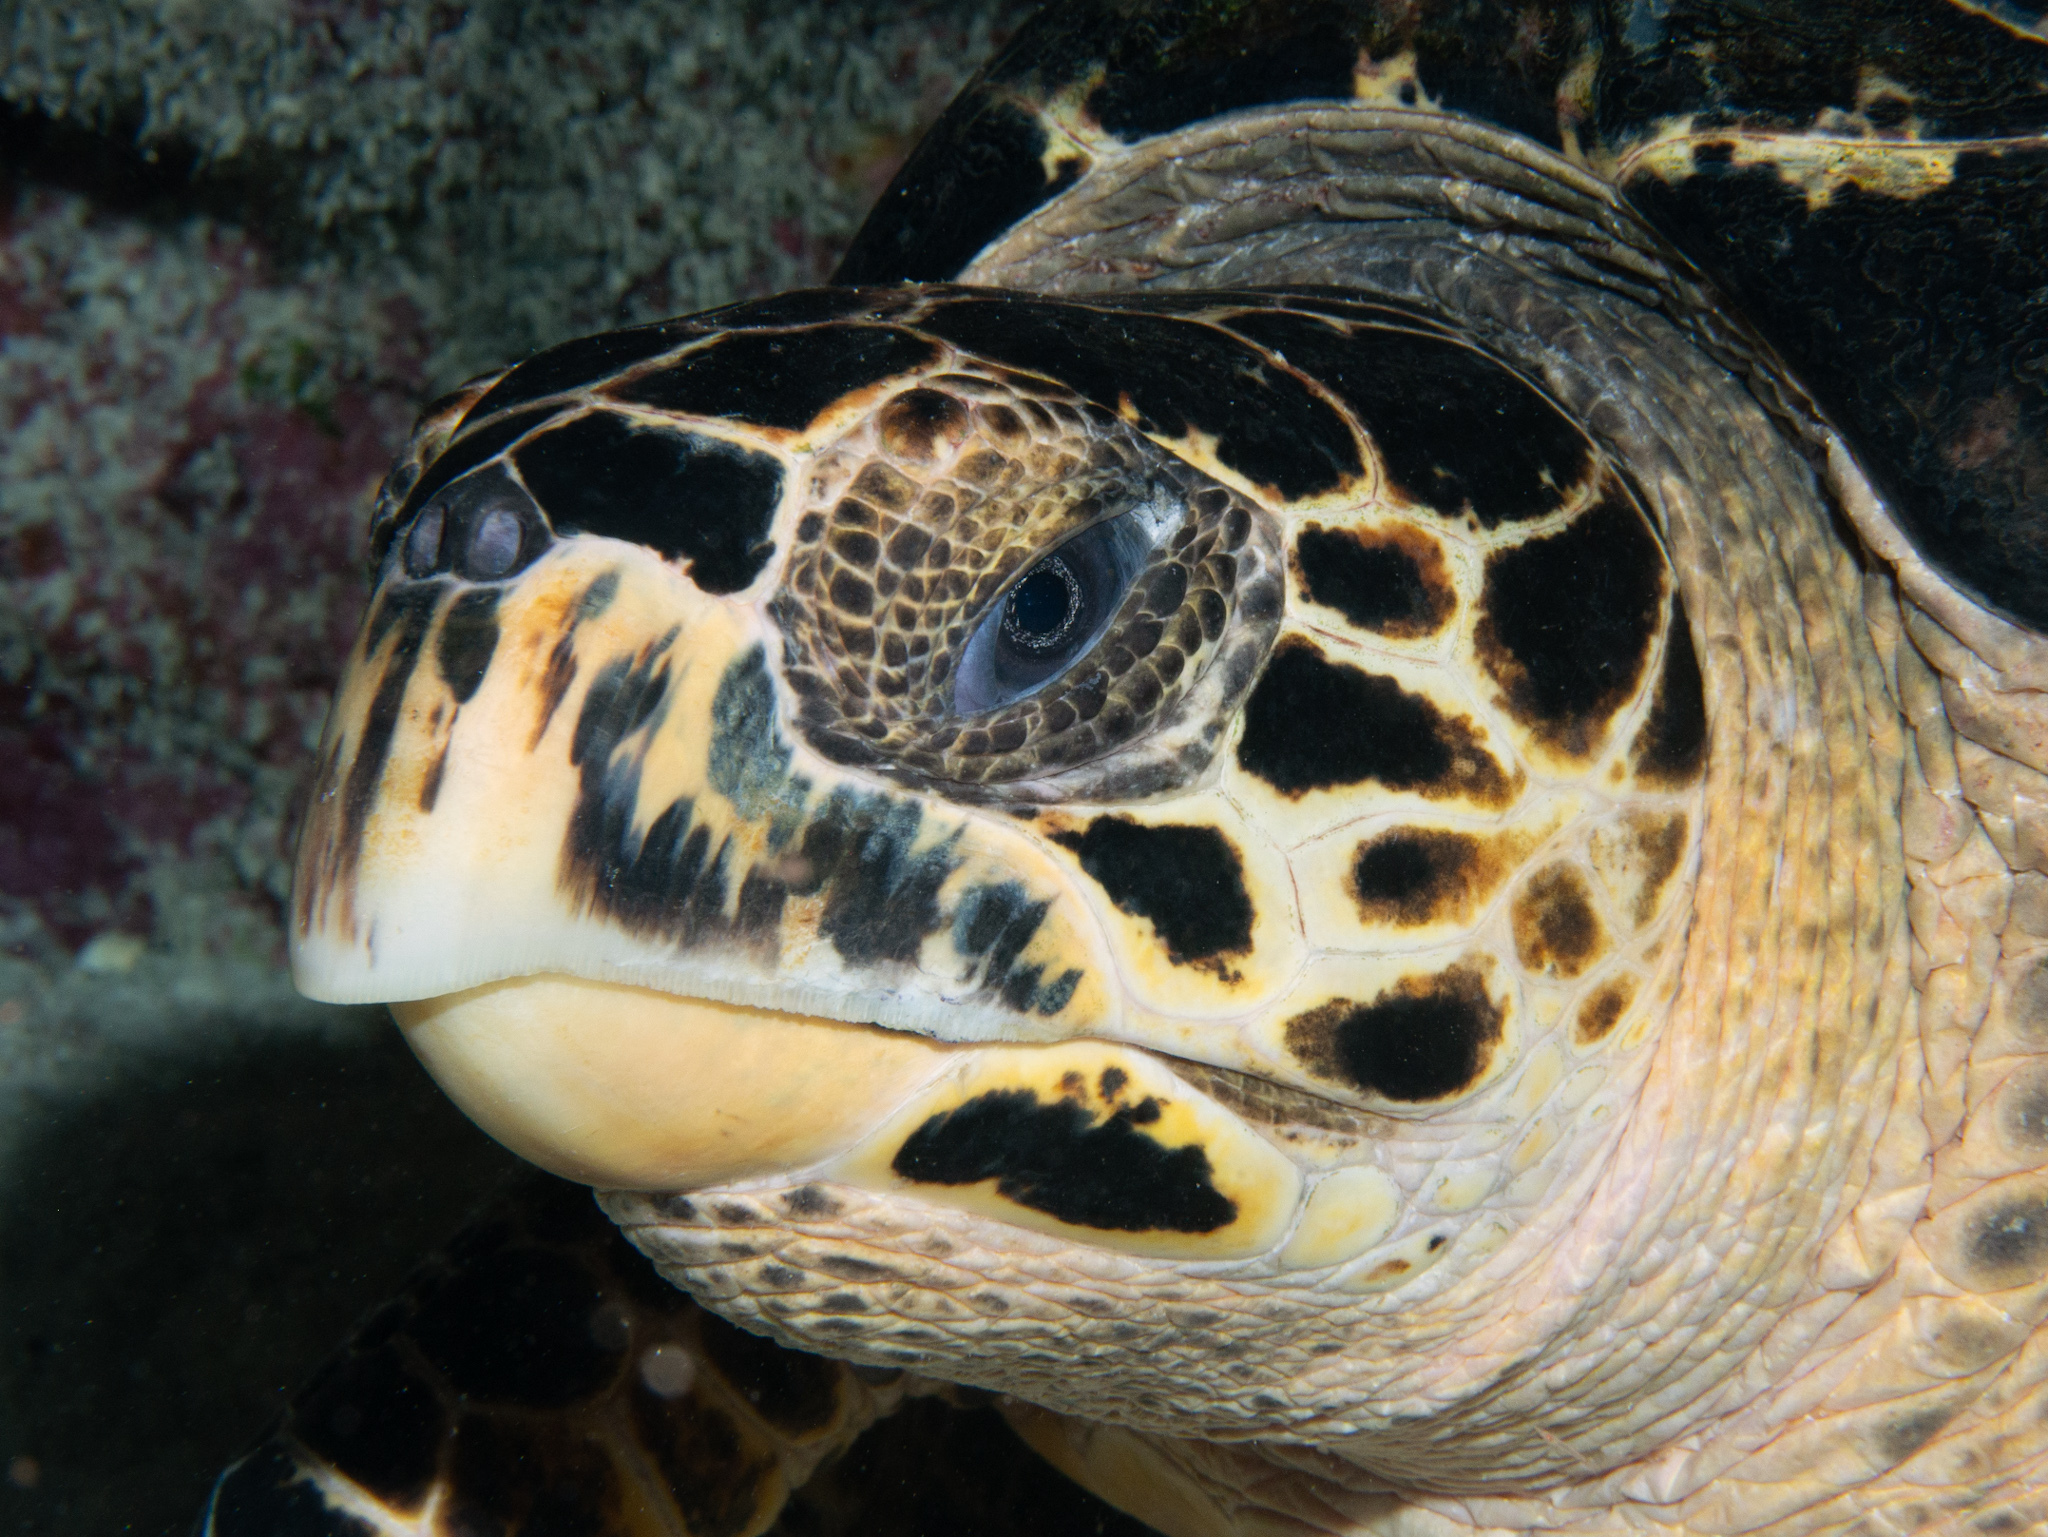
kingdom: Animalia
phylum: Chordata
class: Testudines
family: Cheloniidae
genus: Eretmochelys
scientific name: Eretmochelys imbricata
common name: Hawksbill turtle
